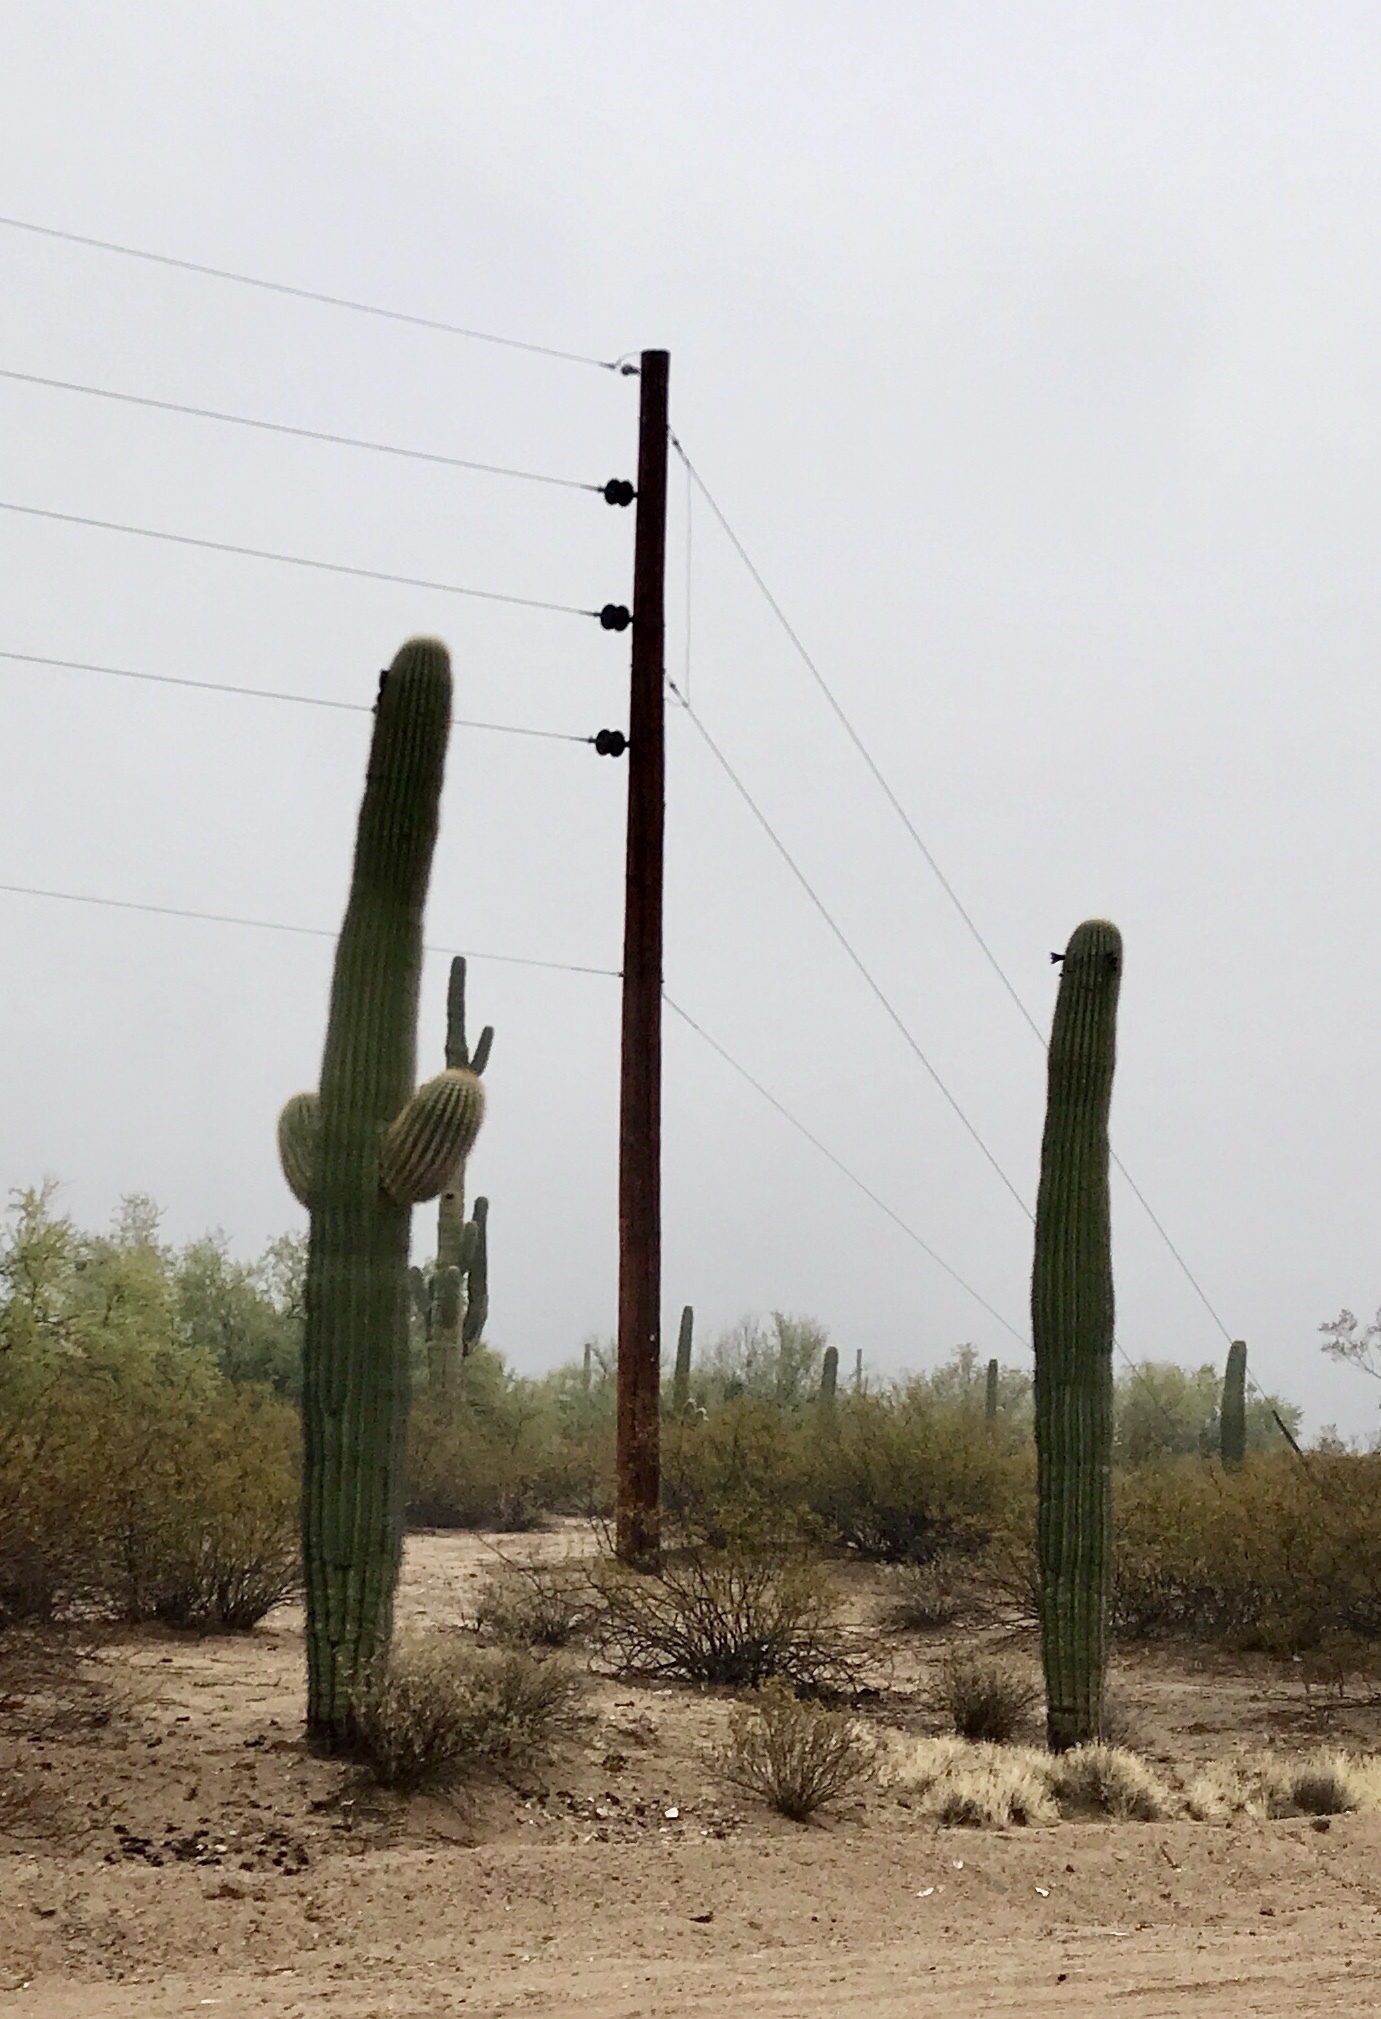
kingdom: Plantae
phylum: Tracheophyta
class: Magnoliopsida
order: Caryophyllales
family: Cactaceae
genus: Carnegiea
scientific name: Carnegiea gigantea
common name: Saguaro
